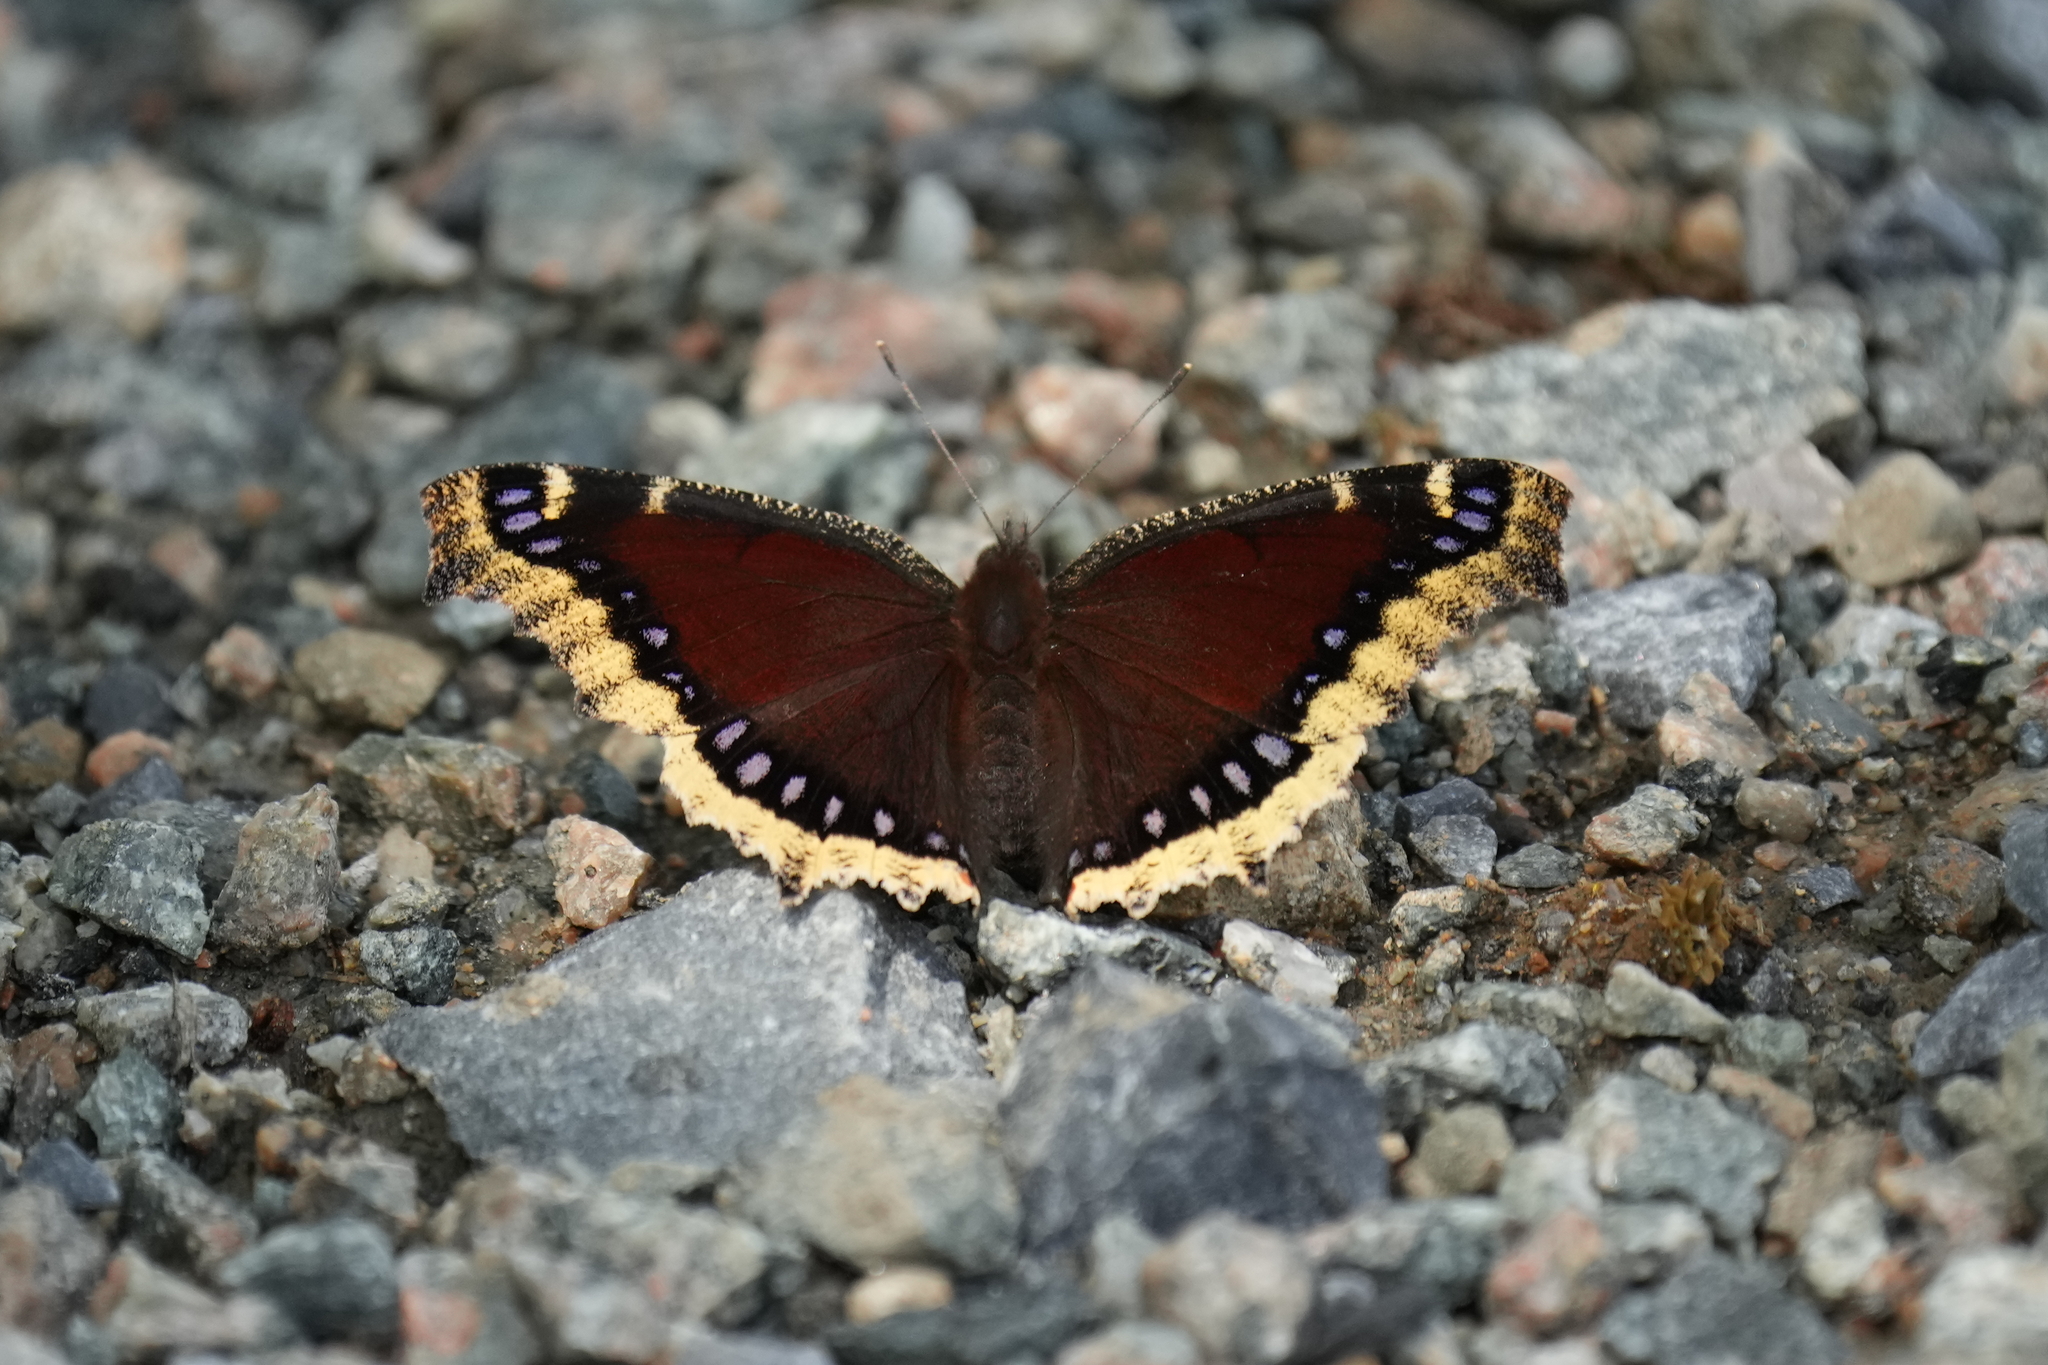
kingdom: Animalia
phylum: Arthropoda
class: Insecta
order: Lepidoptera
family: Nymphalidae
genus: Nymphalis
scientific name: Nymphalis antiopa
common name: Camberwell beauty
